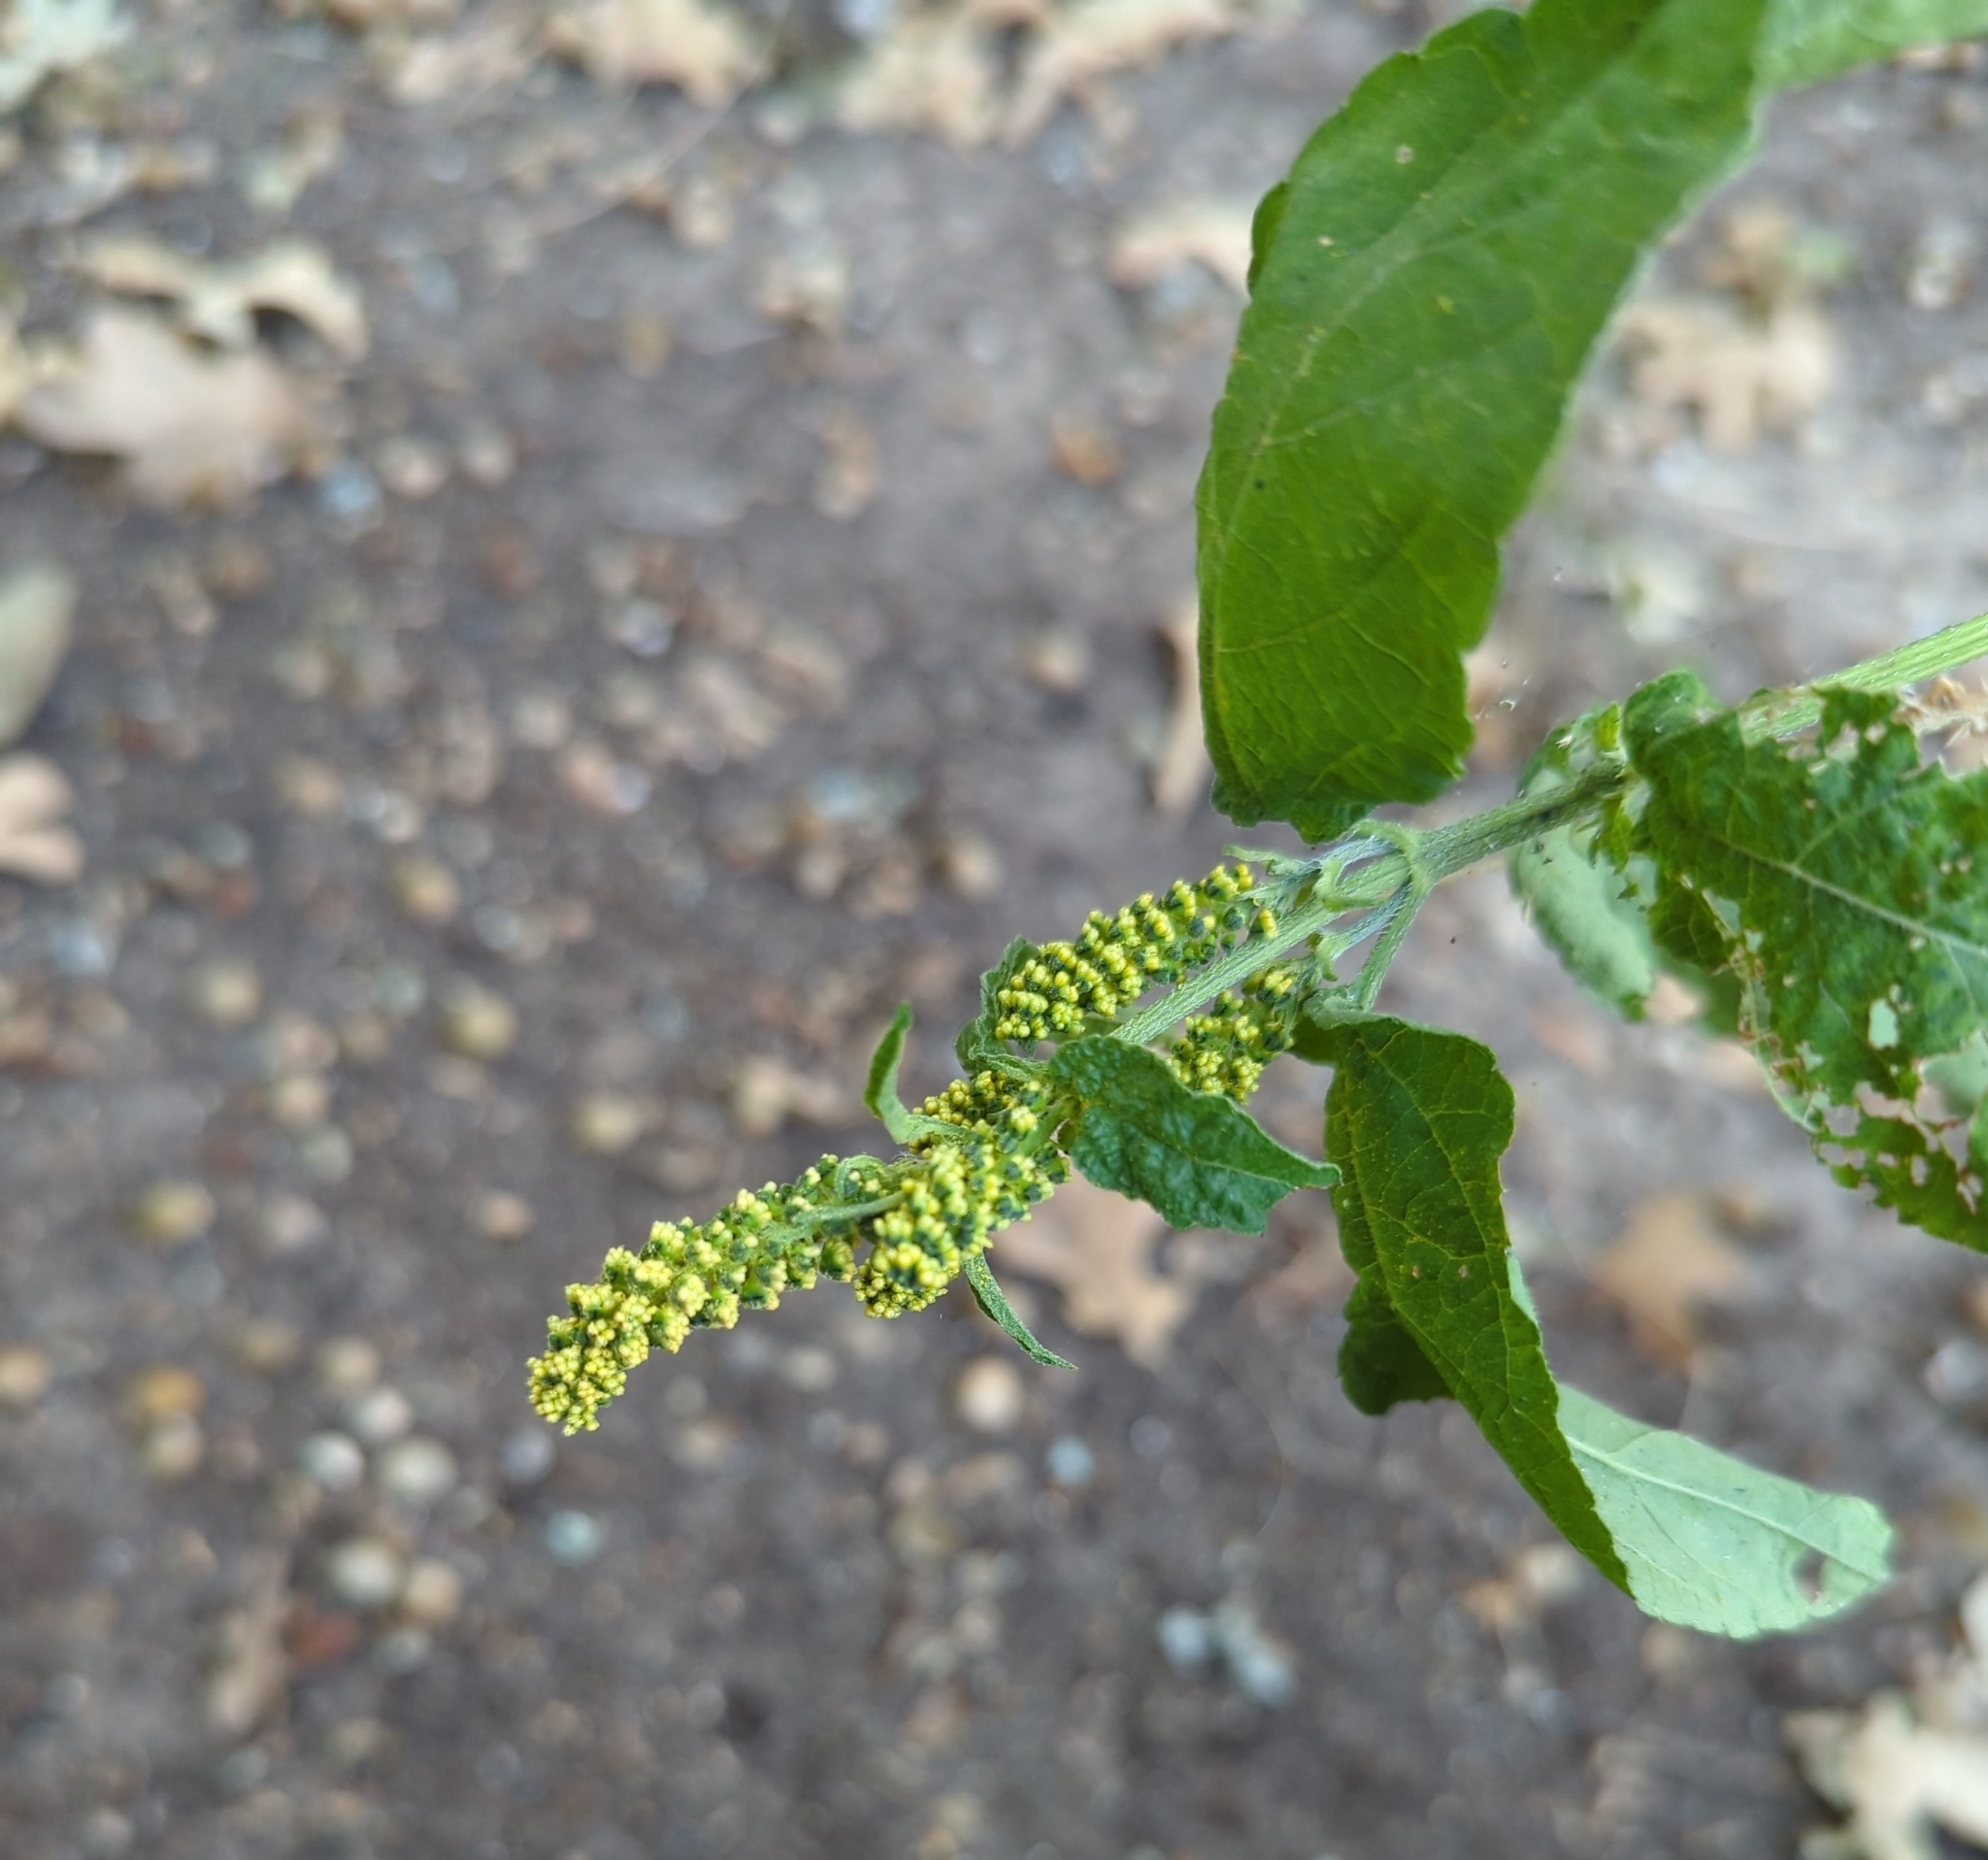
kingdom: Plantae
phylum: Tracheophyta
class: Magnoliopsida
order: Asterales
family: Asteraceae
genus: Ambrosia
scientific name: Ambrosia trifida
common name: Giant ragweed
